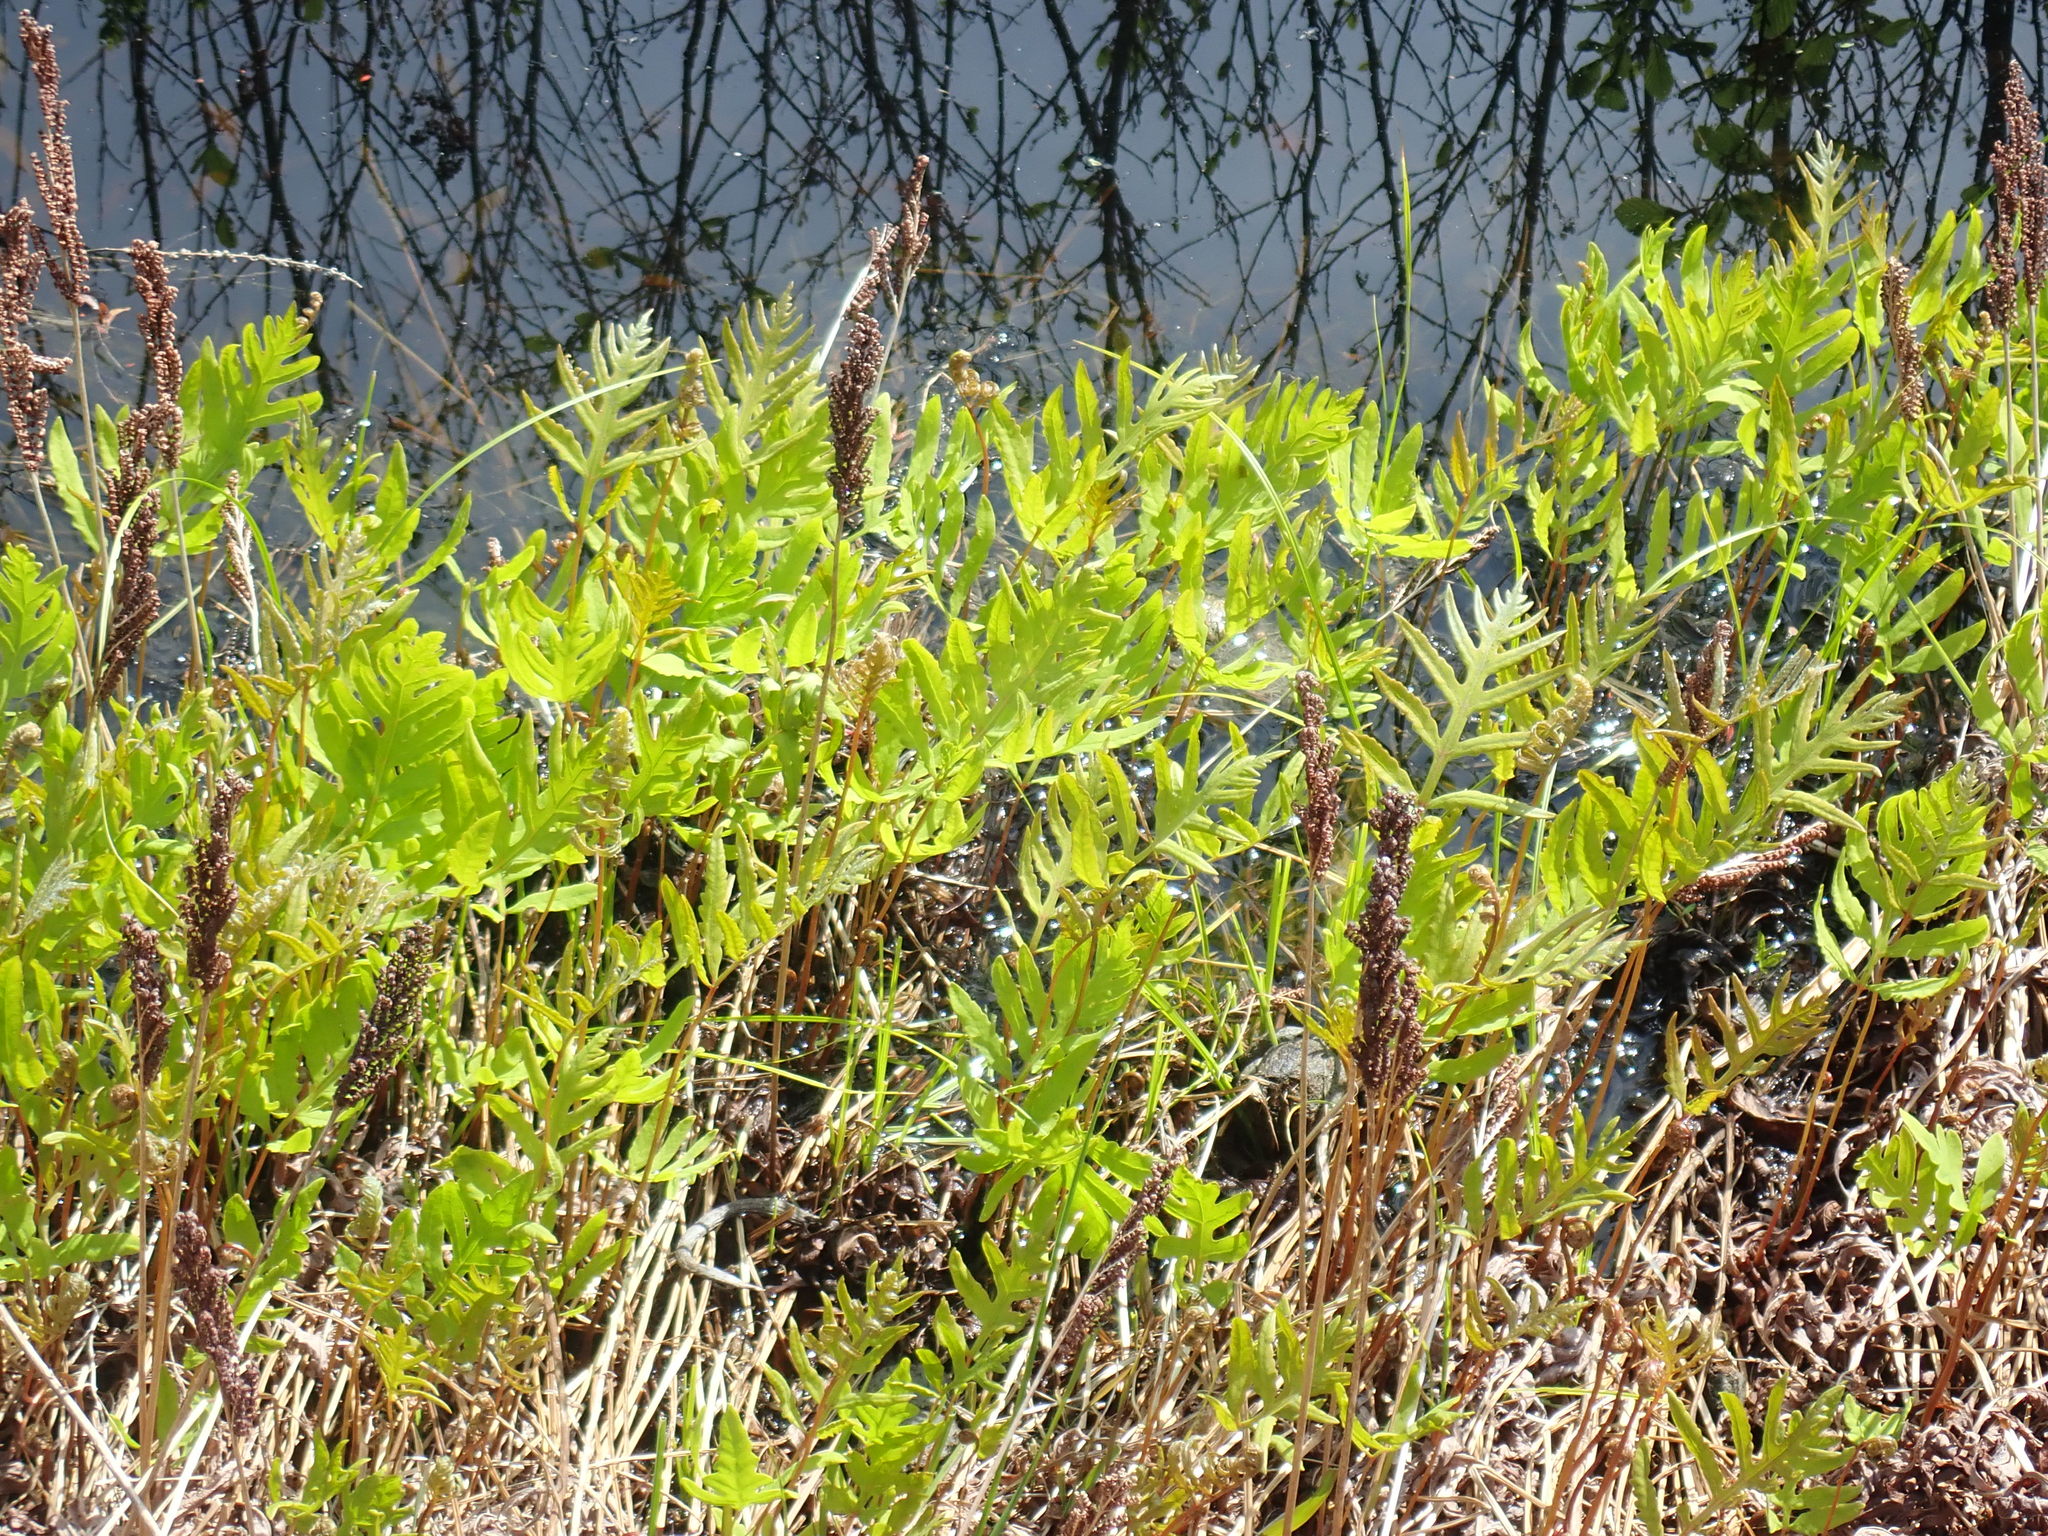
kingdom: Plantae
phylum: Tracheophyta
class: Polypodiopsida
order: Polypodiales
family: Onocleaceae
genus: Onoclea
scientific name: Onoclea sensibilis
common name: Sensitive fern
